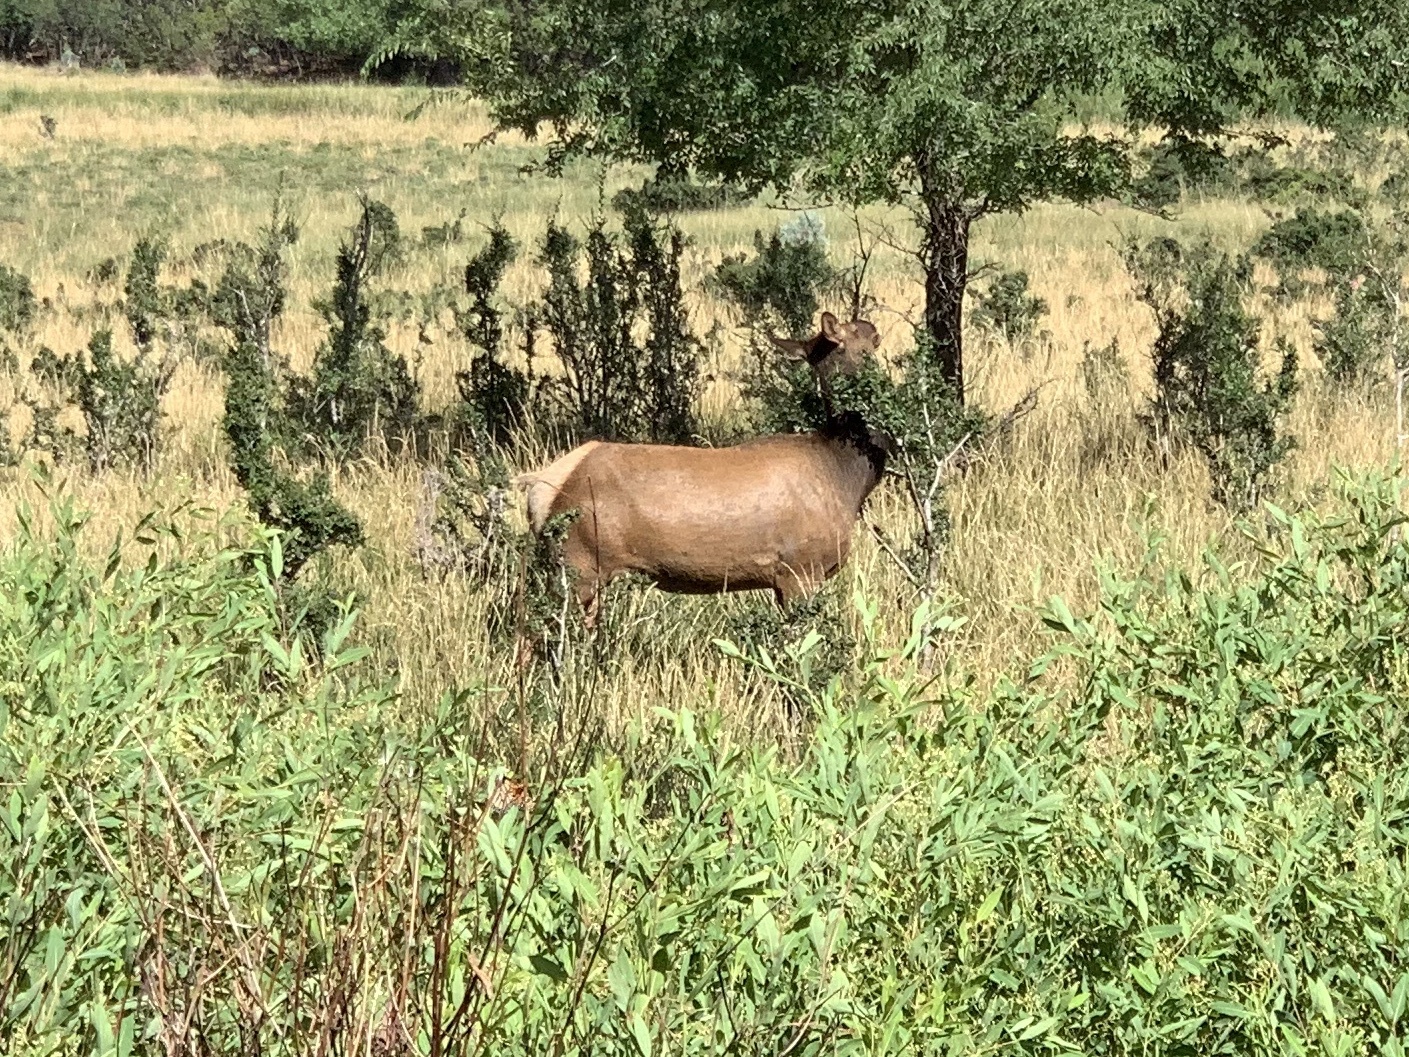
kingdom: Animalia
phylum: Chordata
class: Mammalia
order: Artiodactyla
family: Cervidae
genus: Cervus
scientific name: Cervus elaphus
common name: Red deer
